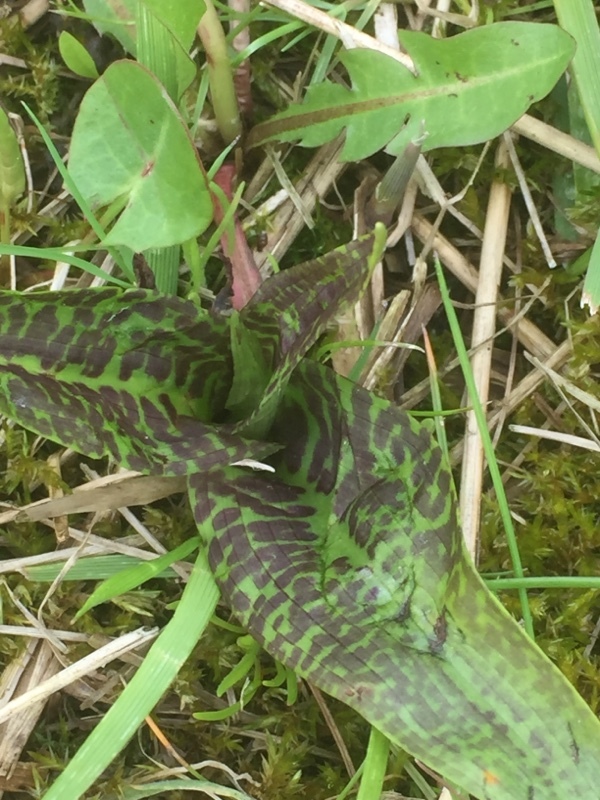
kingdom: Plantae
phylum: Tracheophyta
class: Liliopsida
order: Asparagales
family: Orchidaceae
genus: Dactylorhiza
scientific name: Dactylorhiza majalis
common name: Marsh orchid
